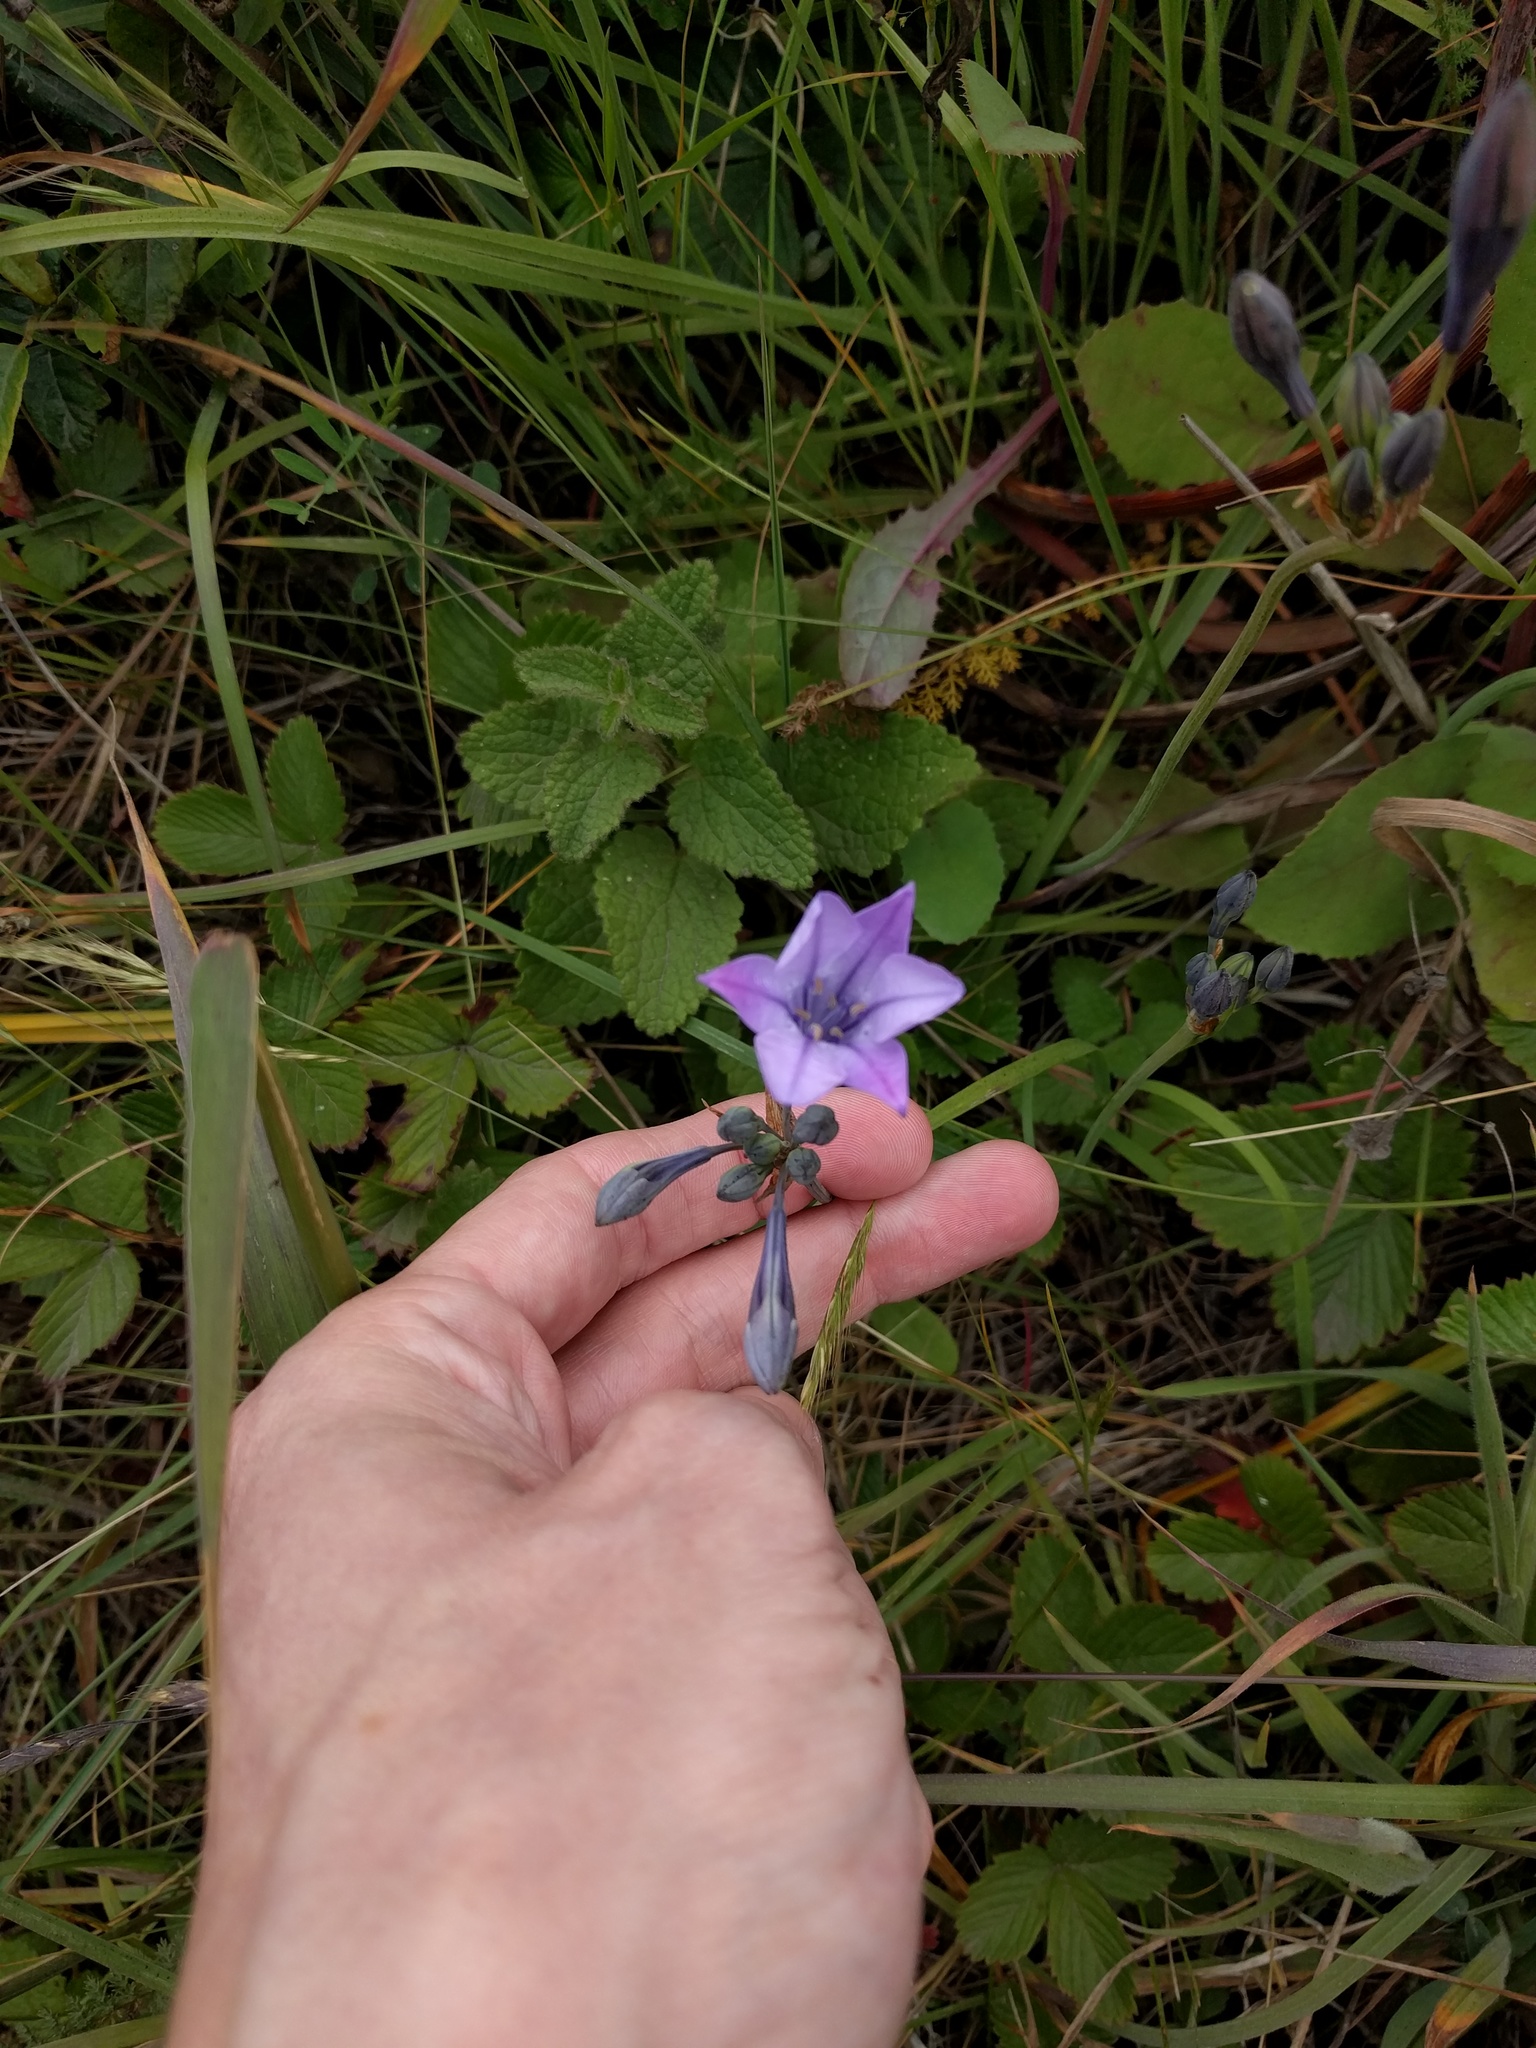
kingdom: Plantae
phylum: Tracheophyta
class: Liliopsida
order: Asparagales
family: Asparagaceae
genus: Triteleia
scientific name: Triteleia laxa
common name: Triplet-lily
